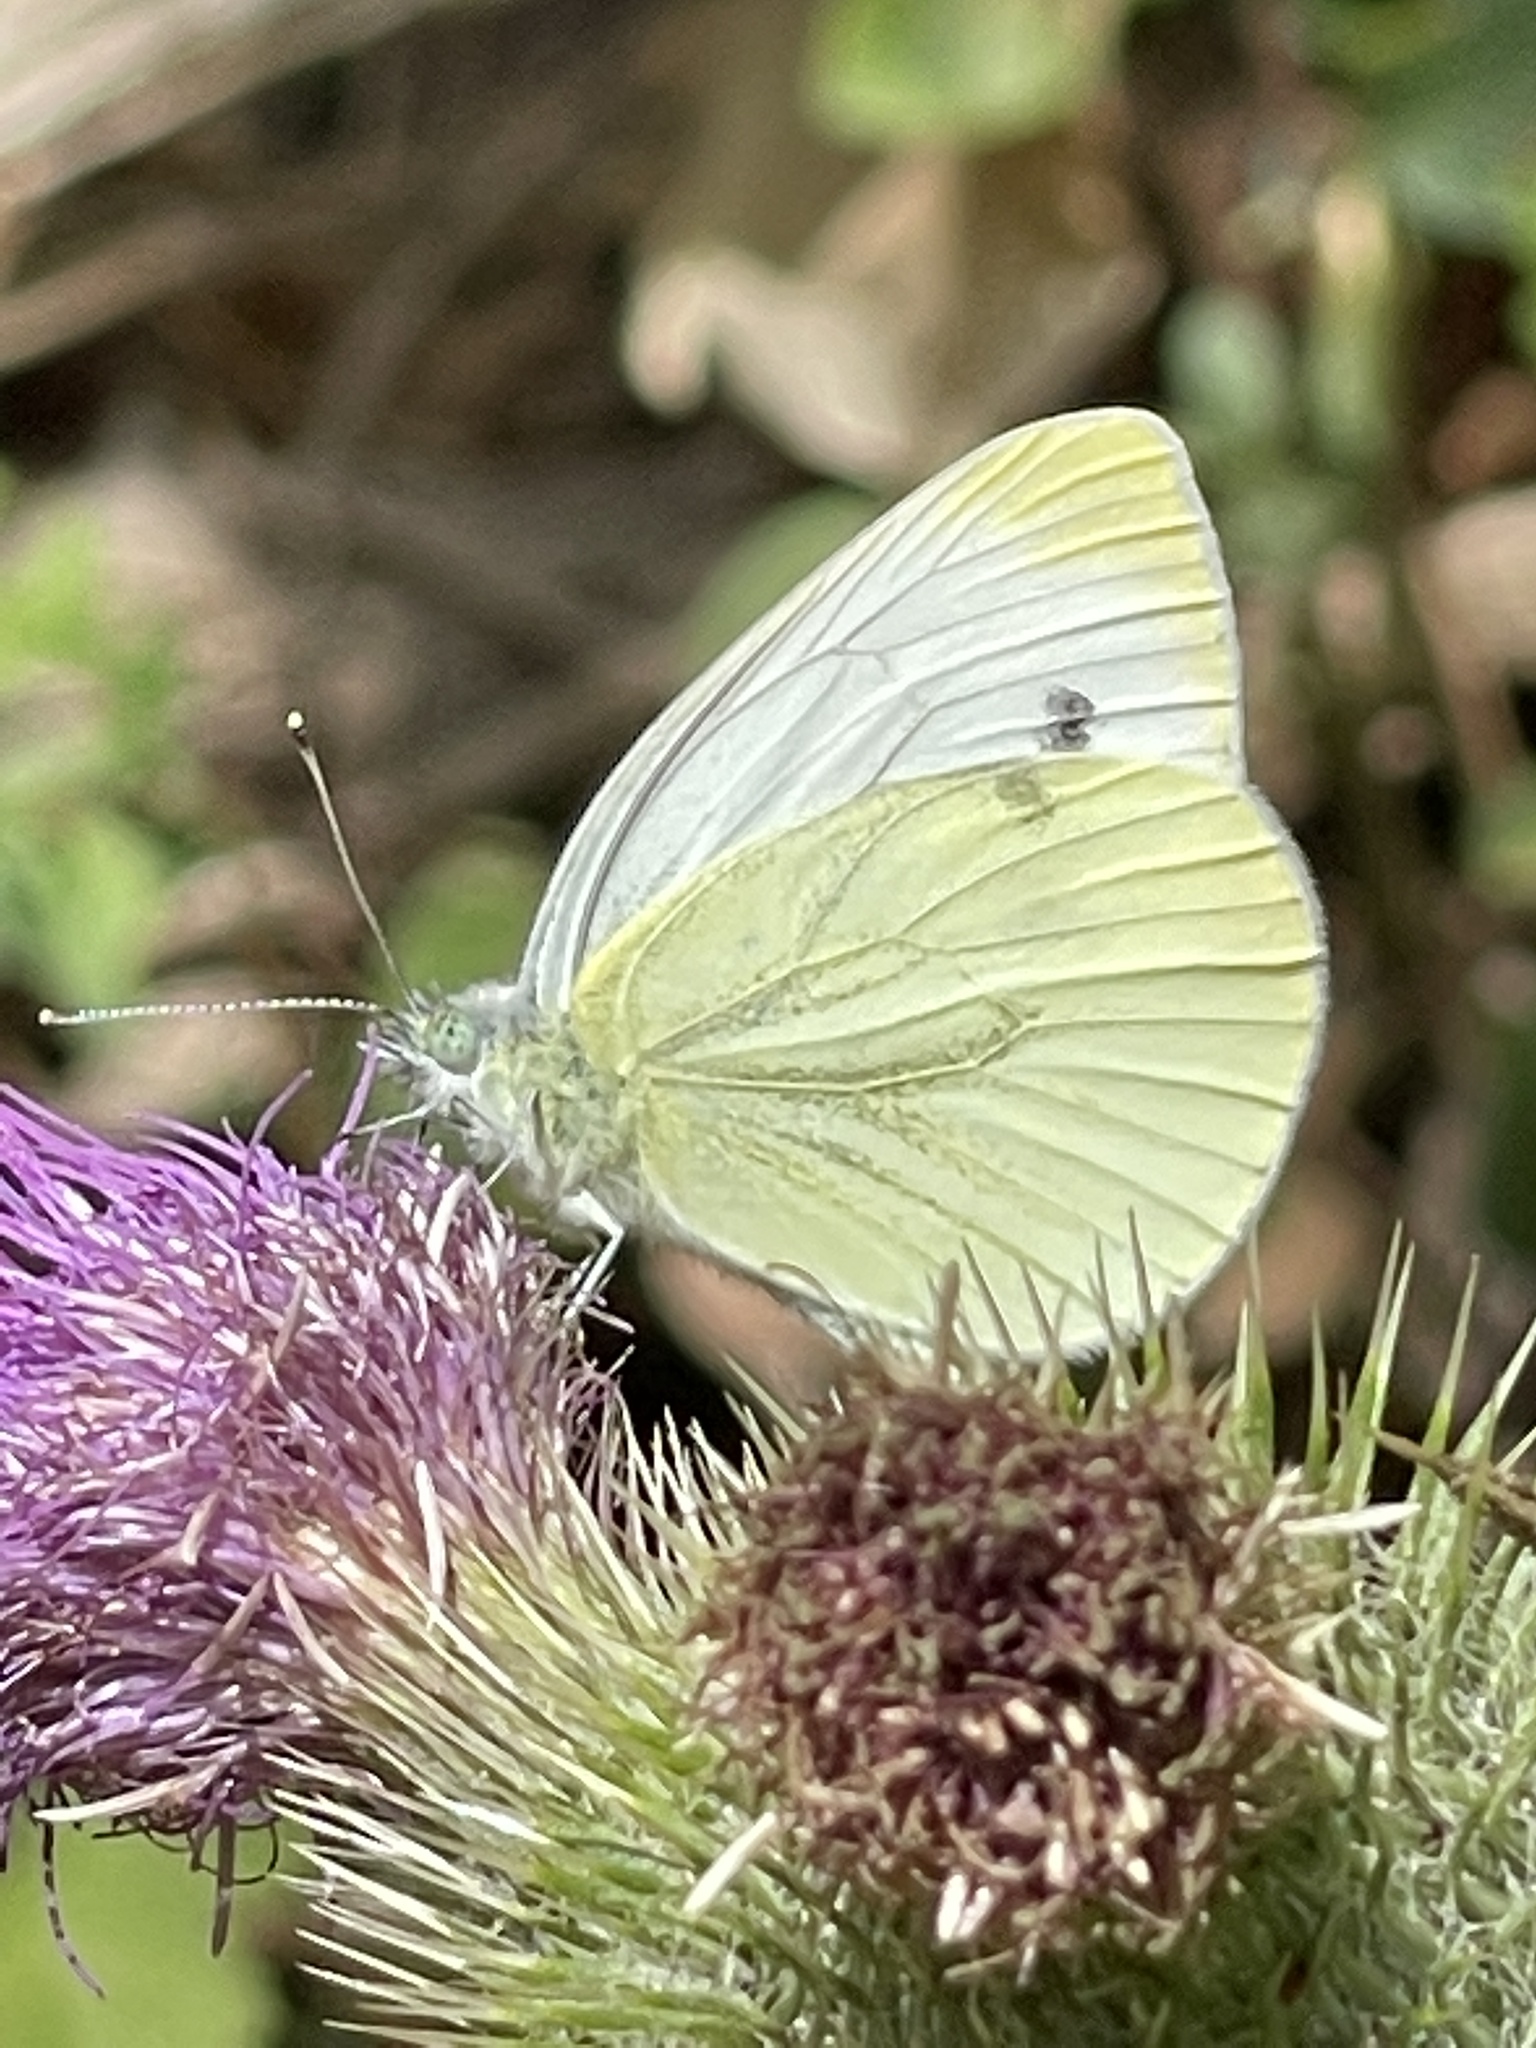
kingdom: Animalia
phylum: Arthropoda
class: Insecta
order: Lepidoptera
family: Pieridae
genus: Pieris
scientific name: Pieris napi
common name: Green-veined white
